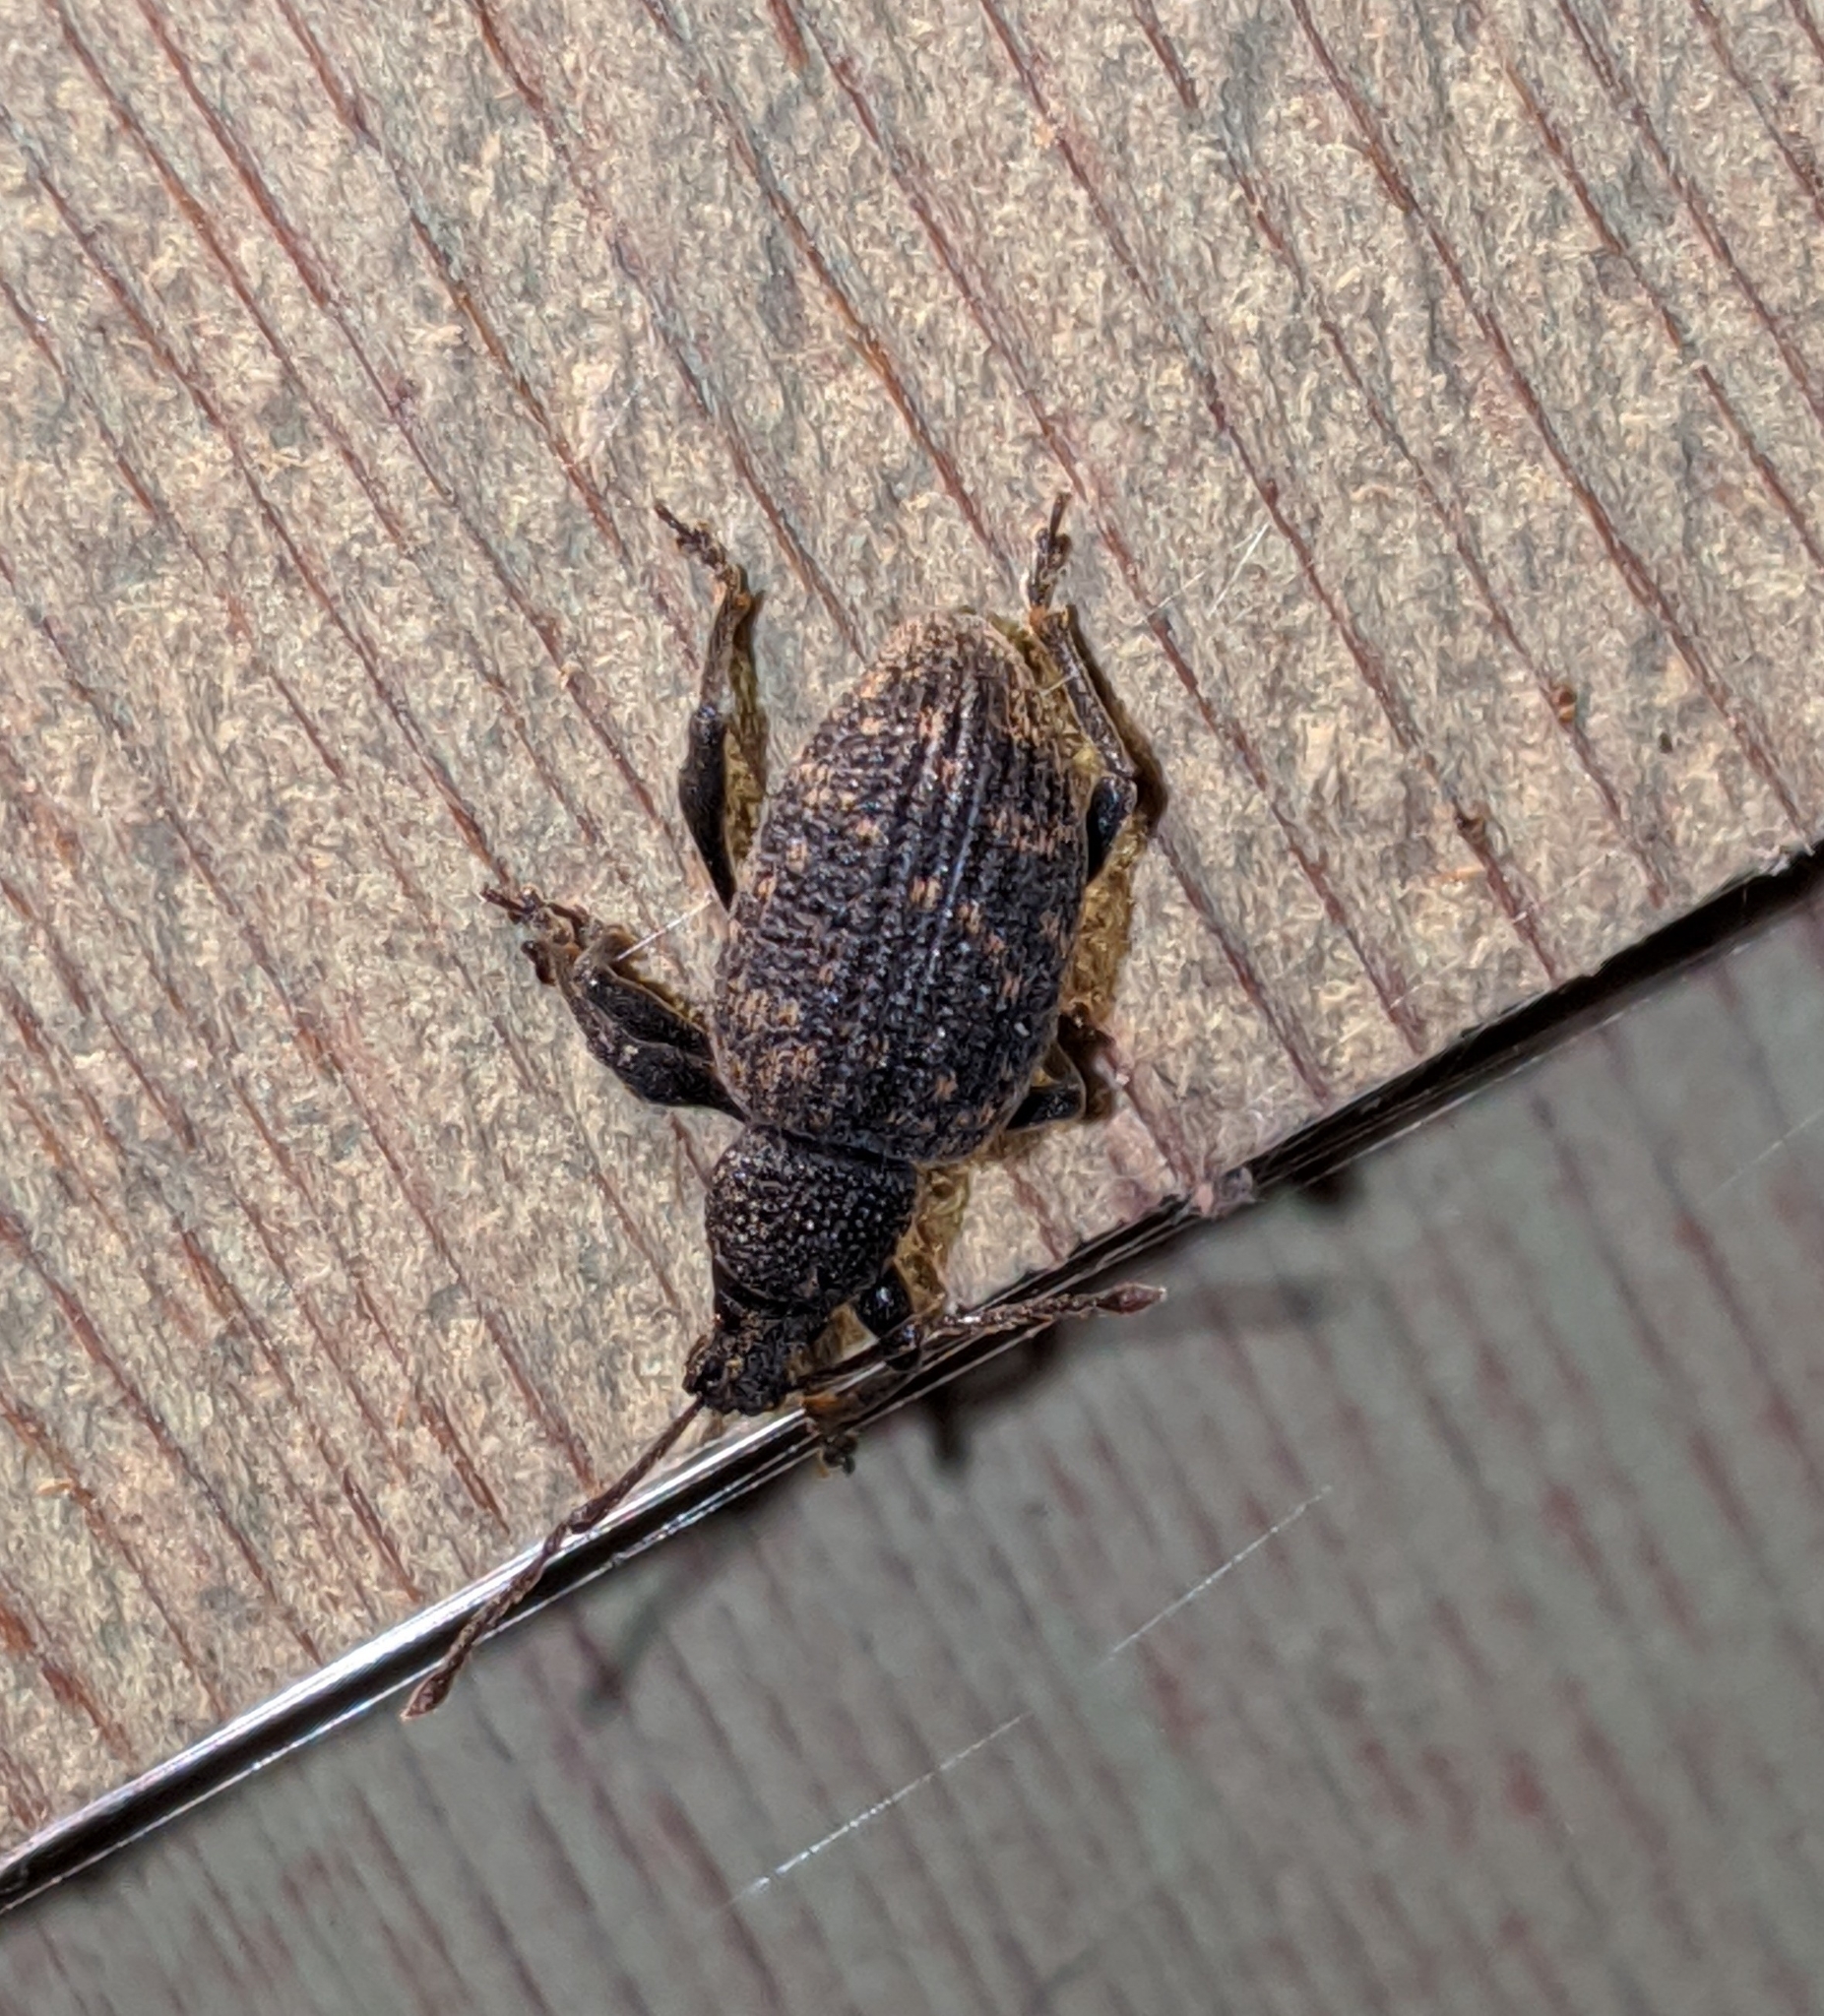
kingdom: Animalia
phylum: Arthropoda
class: Insecta
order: Coleoptera
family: Curculionidae
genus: Otiorhynchus
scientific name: Otiorhynchus sulcatus
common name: Black vine weevil
